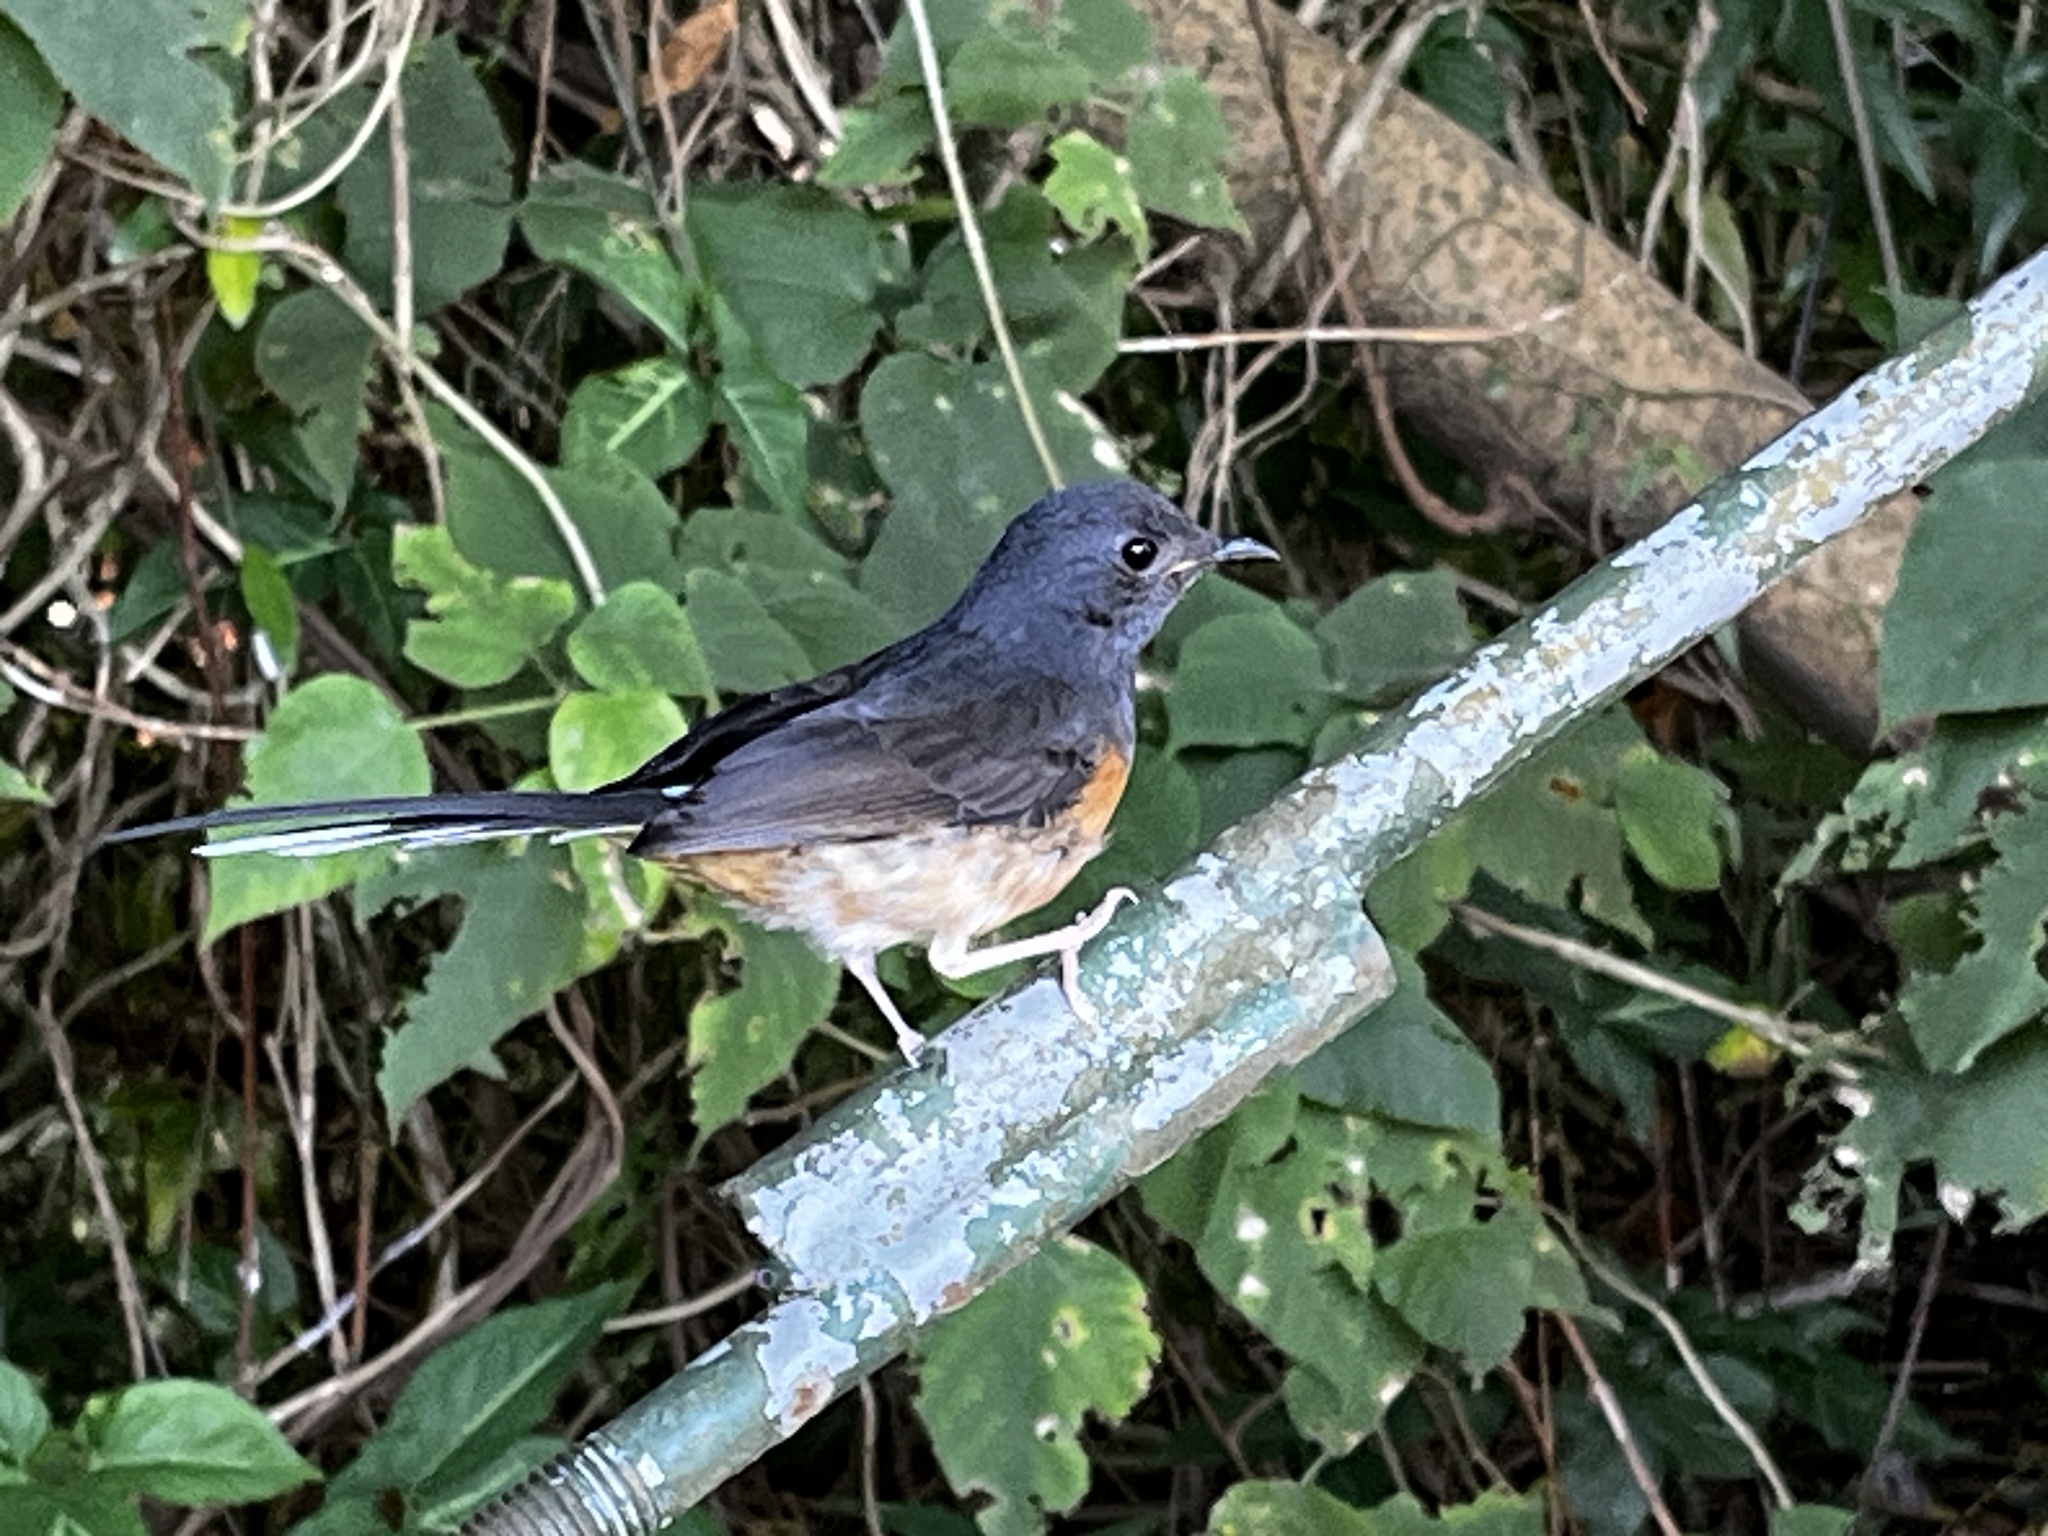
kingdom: Animalia
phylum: Chordata
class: Aves
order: Passeriformes
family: Muscicapidae
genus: Copsychus
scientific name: Copsychus malabaricus
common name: White-rumped shama
